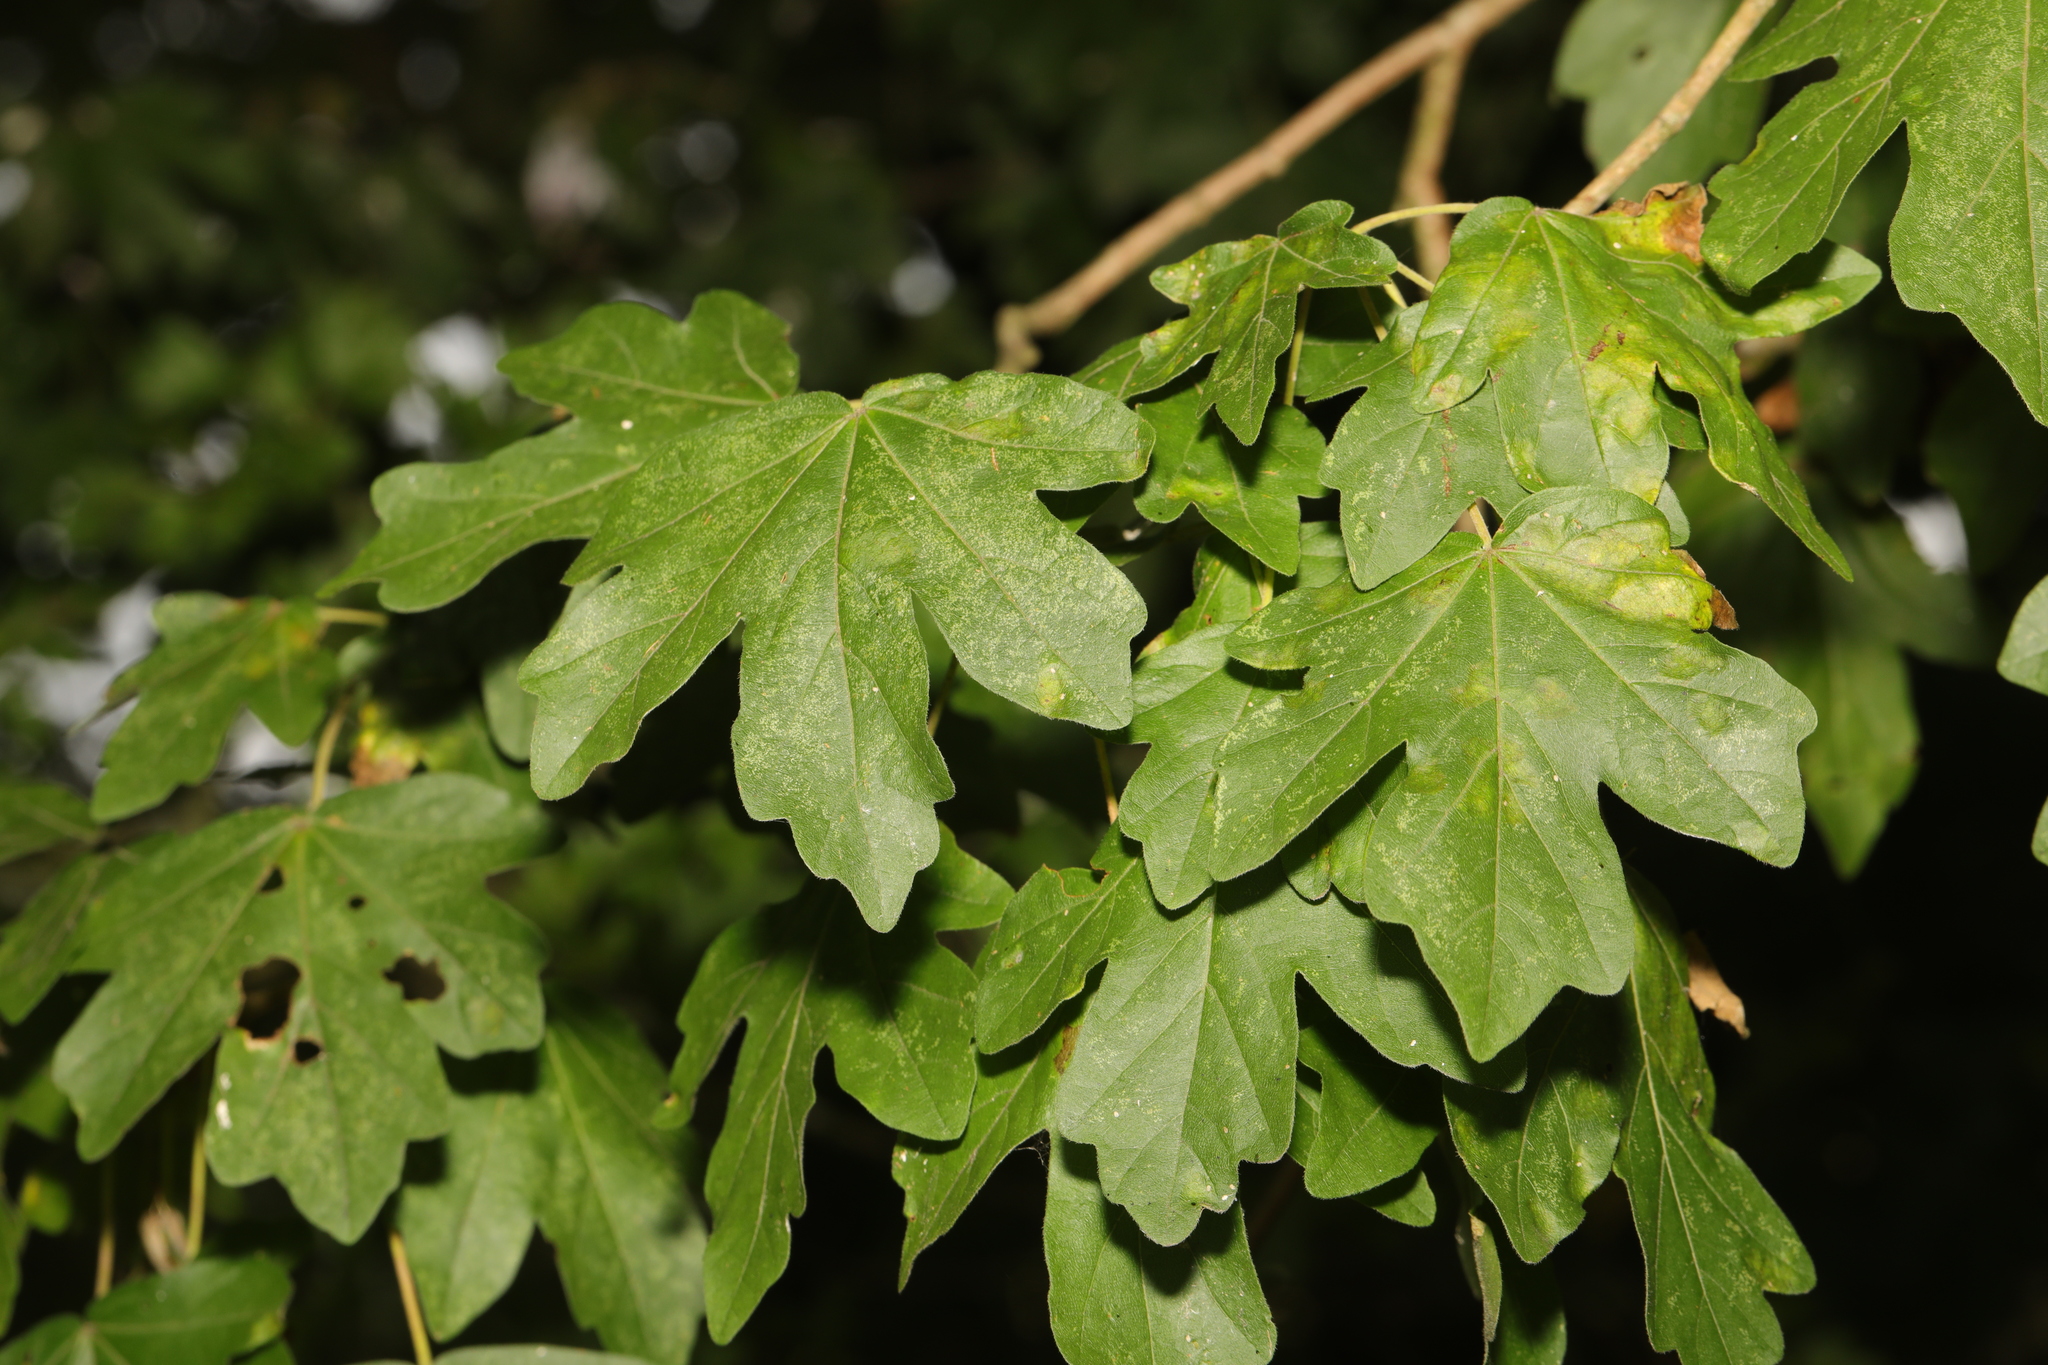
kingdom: Plantae
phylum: Tracheophyta
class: Magnoliopsida
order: Sapindales
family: Sapindaceae
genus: Acer
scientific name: Acer campestre
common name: Field maple
